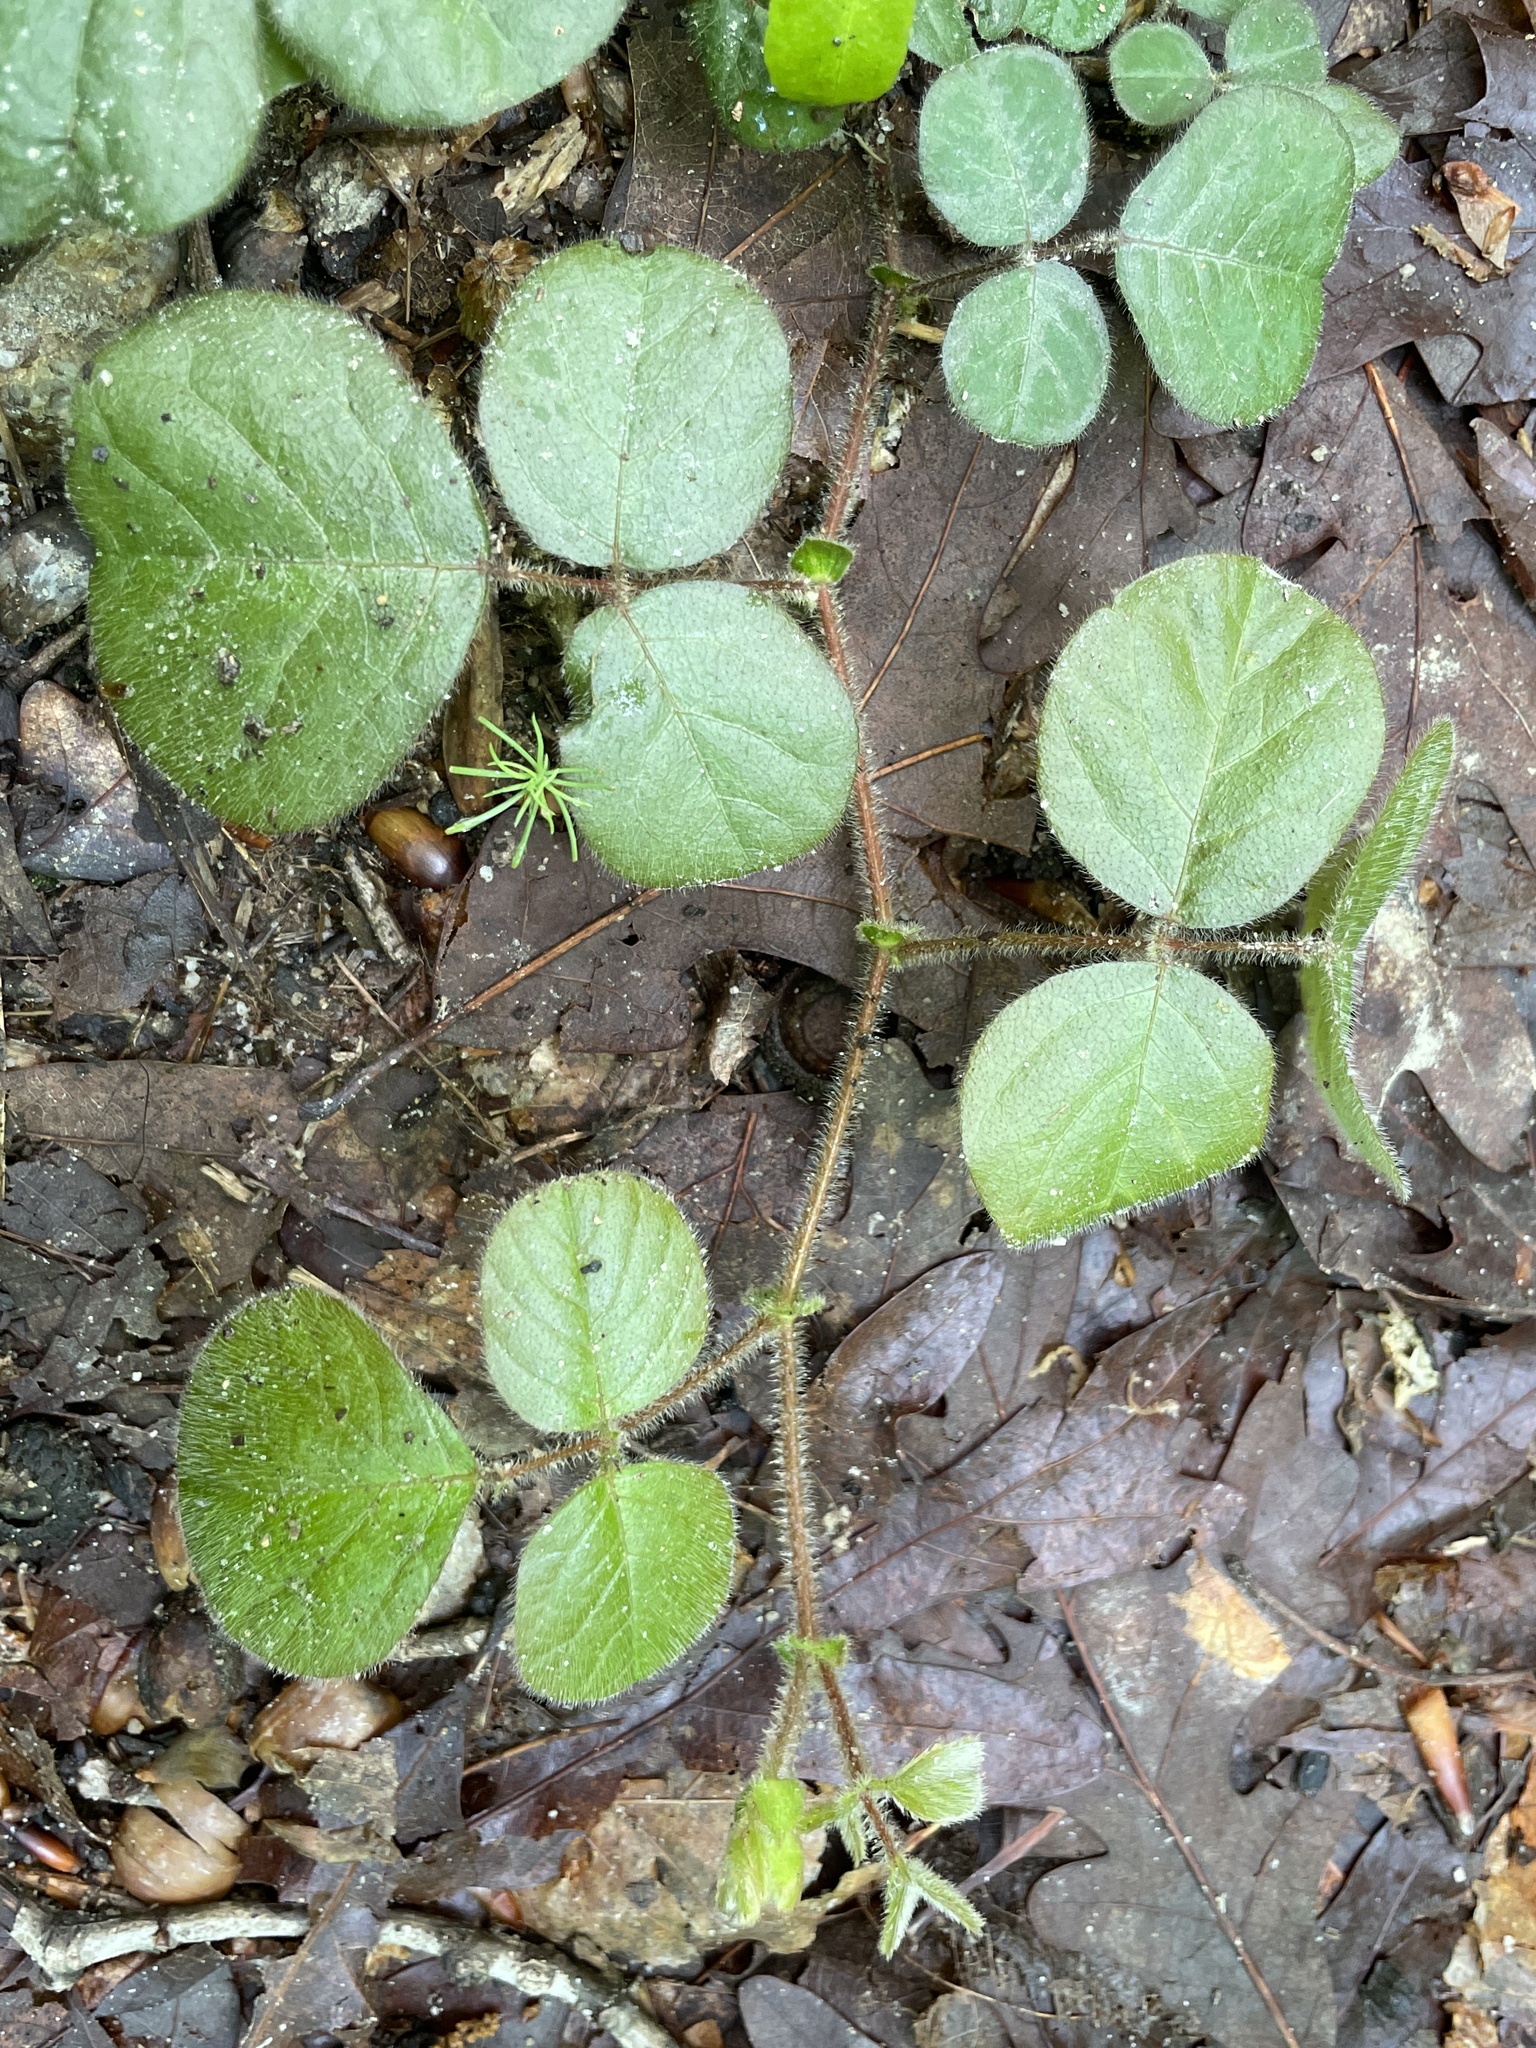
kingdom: Plantae
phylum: Tracheophyta
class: Magnoliopsida
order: Fabales
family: Fabaceae
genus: Desmodium
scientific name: Desmodium rotundifolium
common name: Dollarleaf
